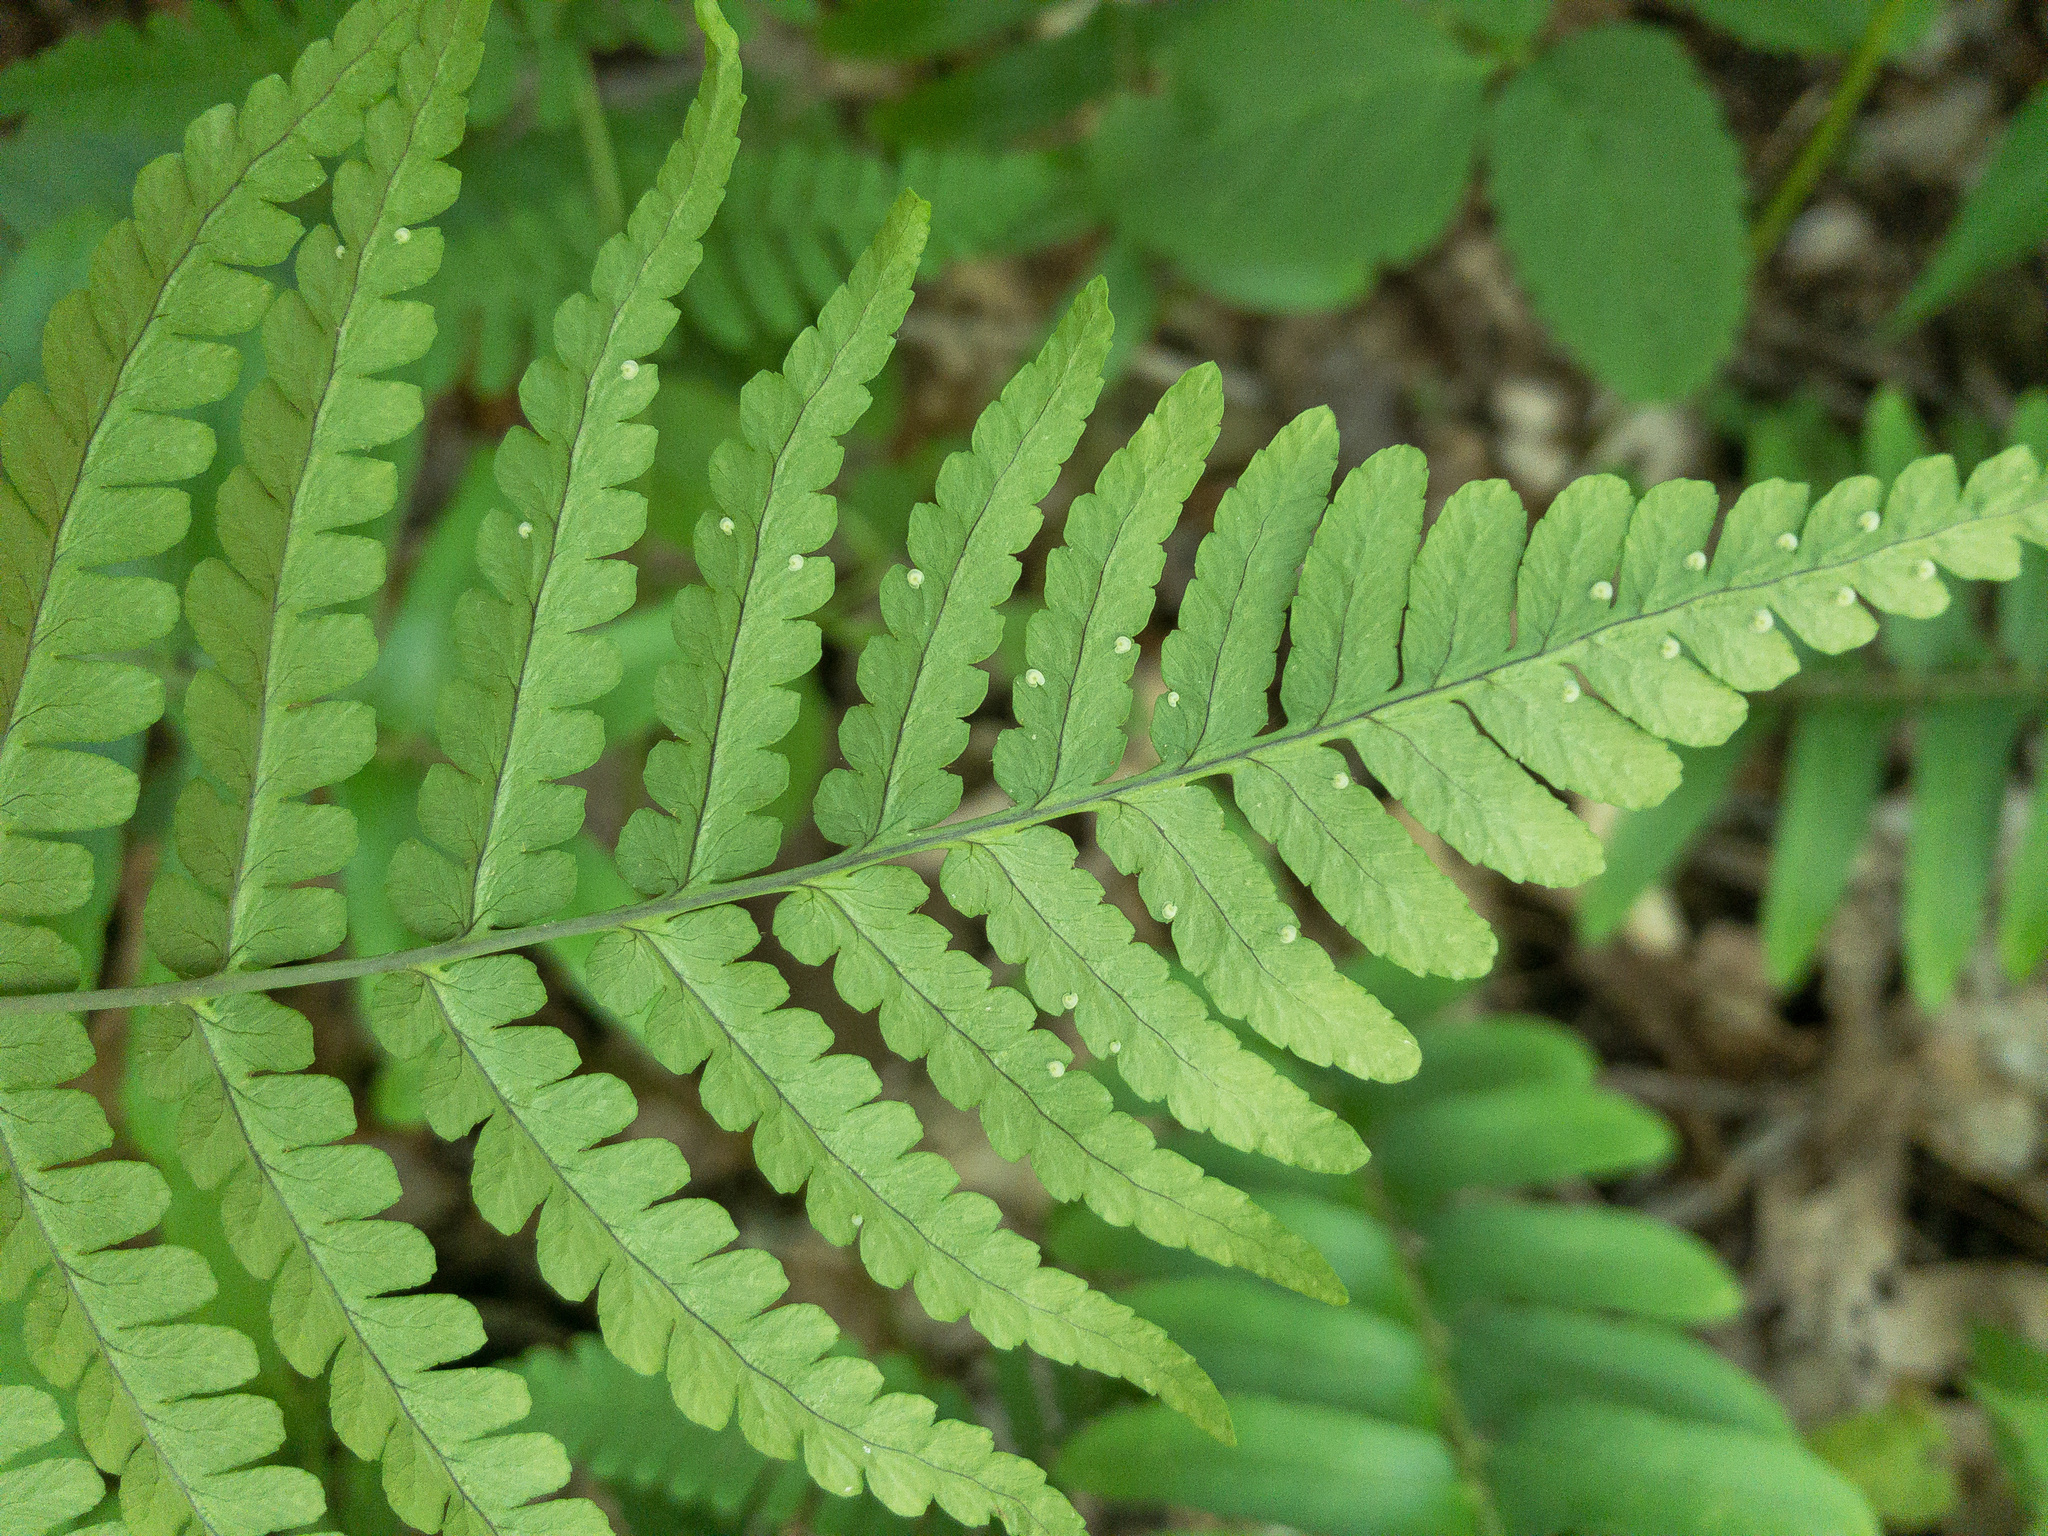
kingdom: Plantae
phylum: Tracheophyta
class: Polypodiopsida
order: Polypodiales
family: Dryopteridaceae
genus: Dryopteris
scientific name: Dryopteris marginalis
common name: Marginal wood fern
